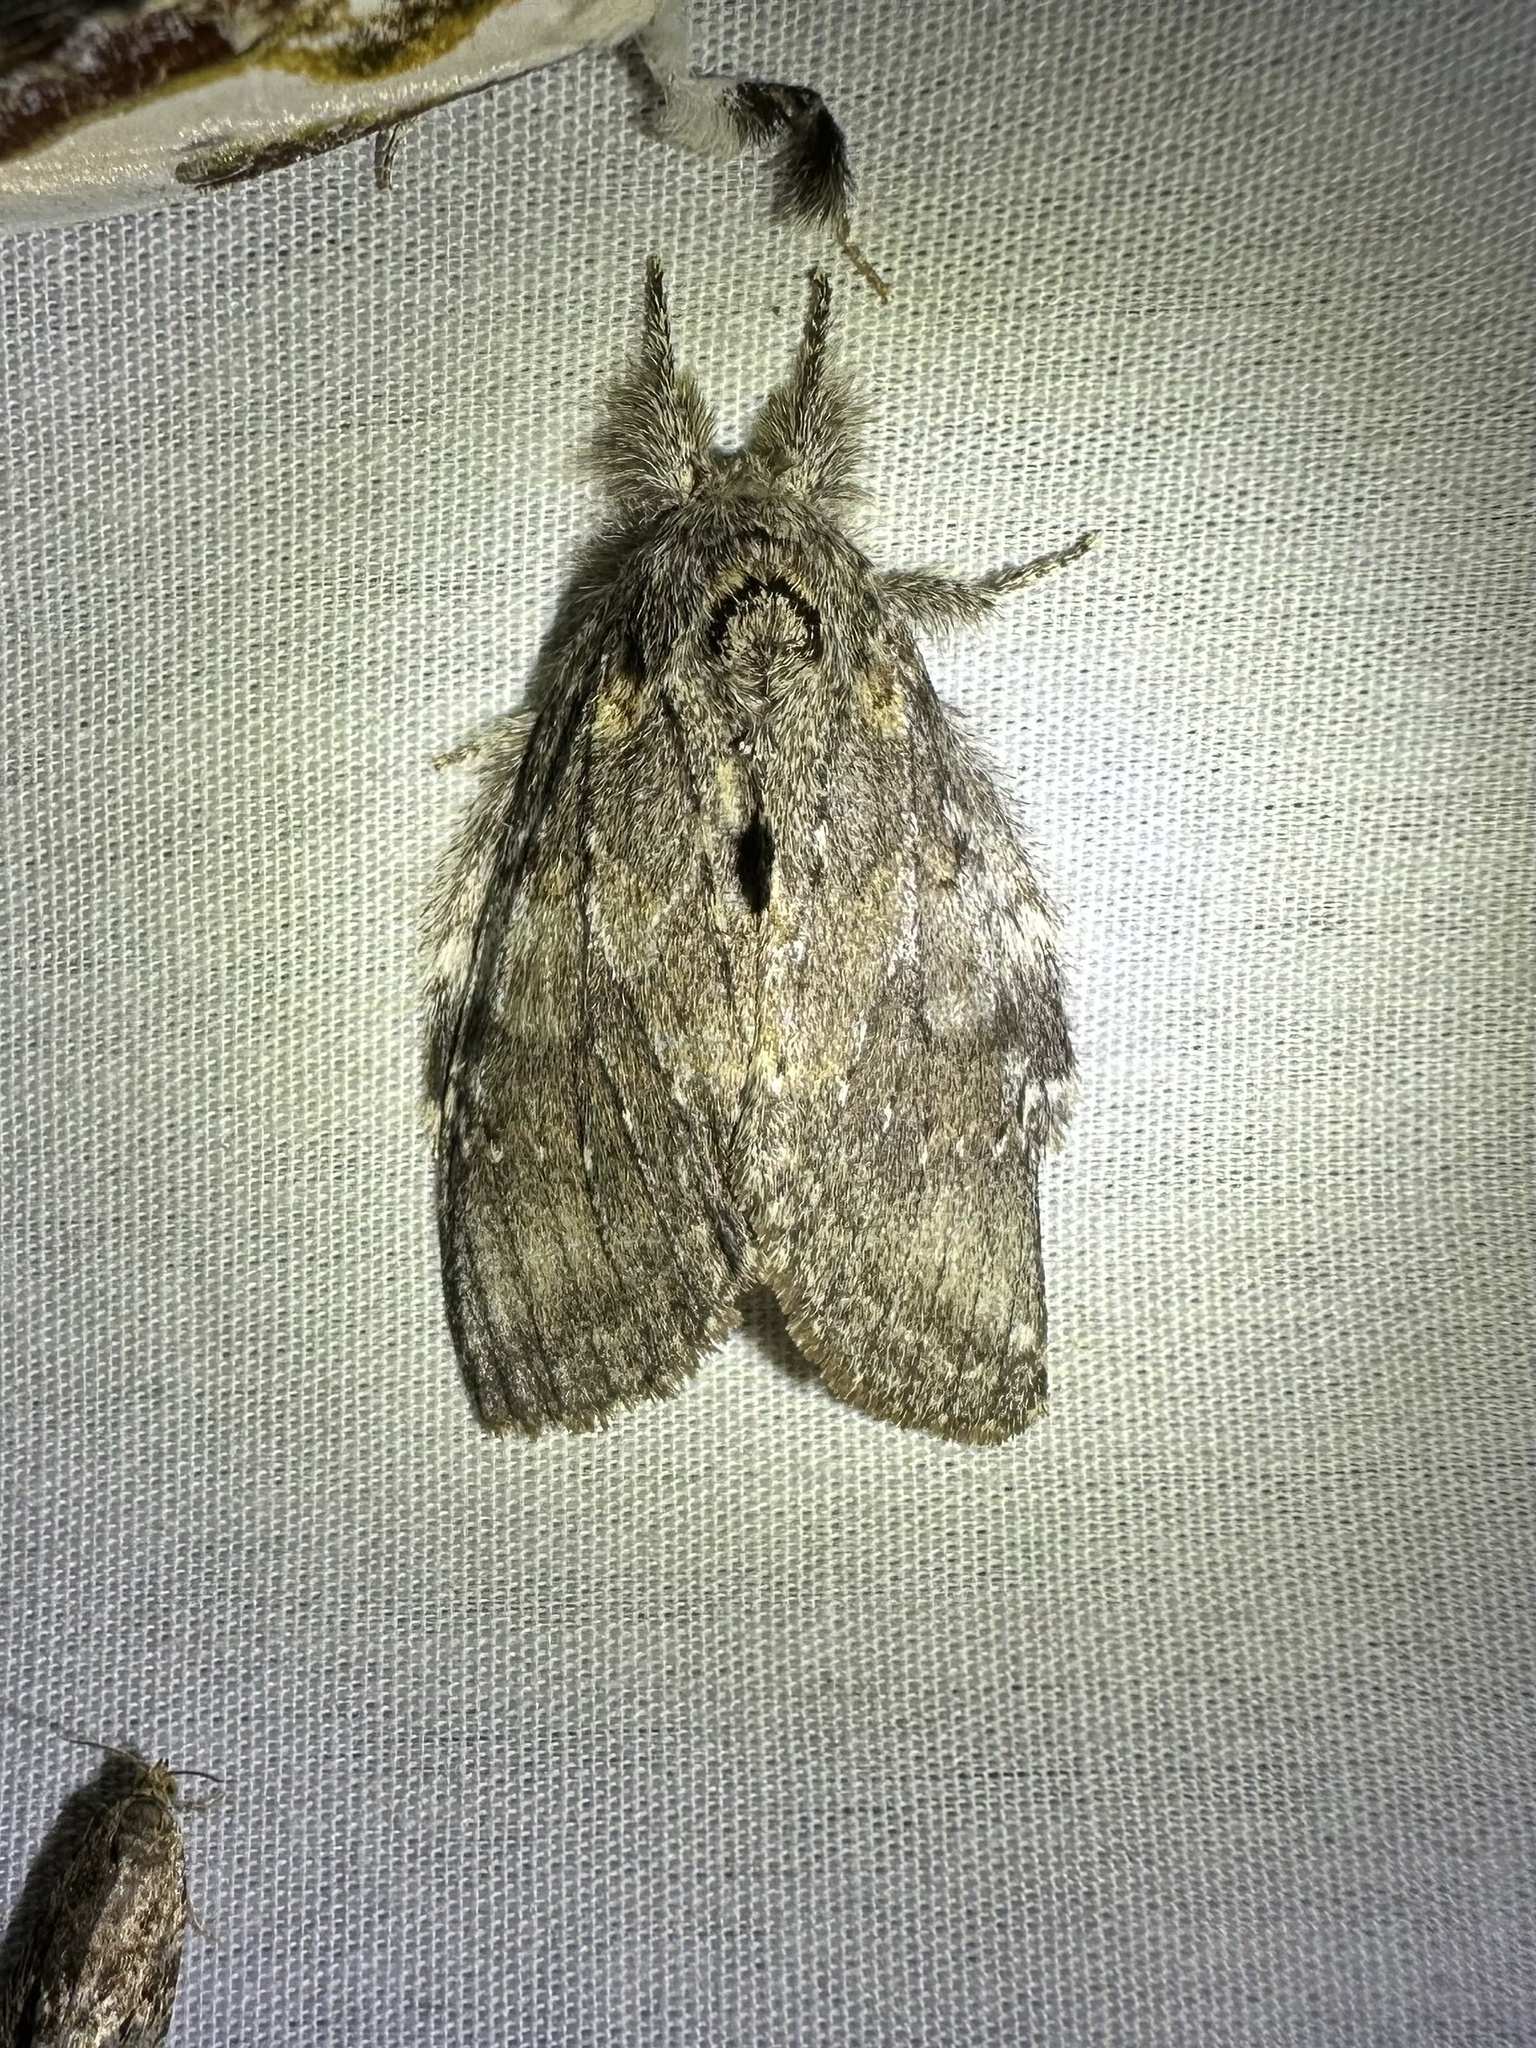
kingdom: Animalia
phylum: Arthropoda
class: Insecta
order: Lepidoptera
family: Notodontidae
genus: Peridea
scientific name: Peridea angulosa
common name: Angulose prominent
